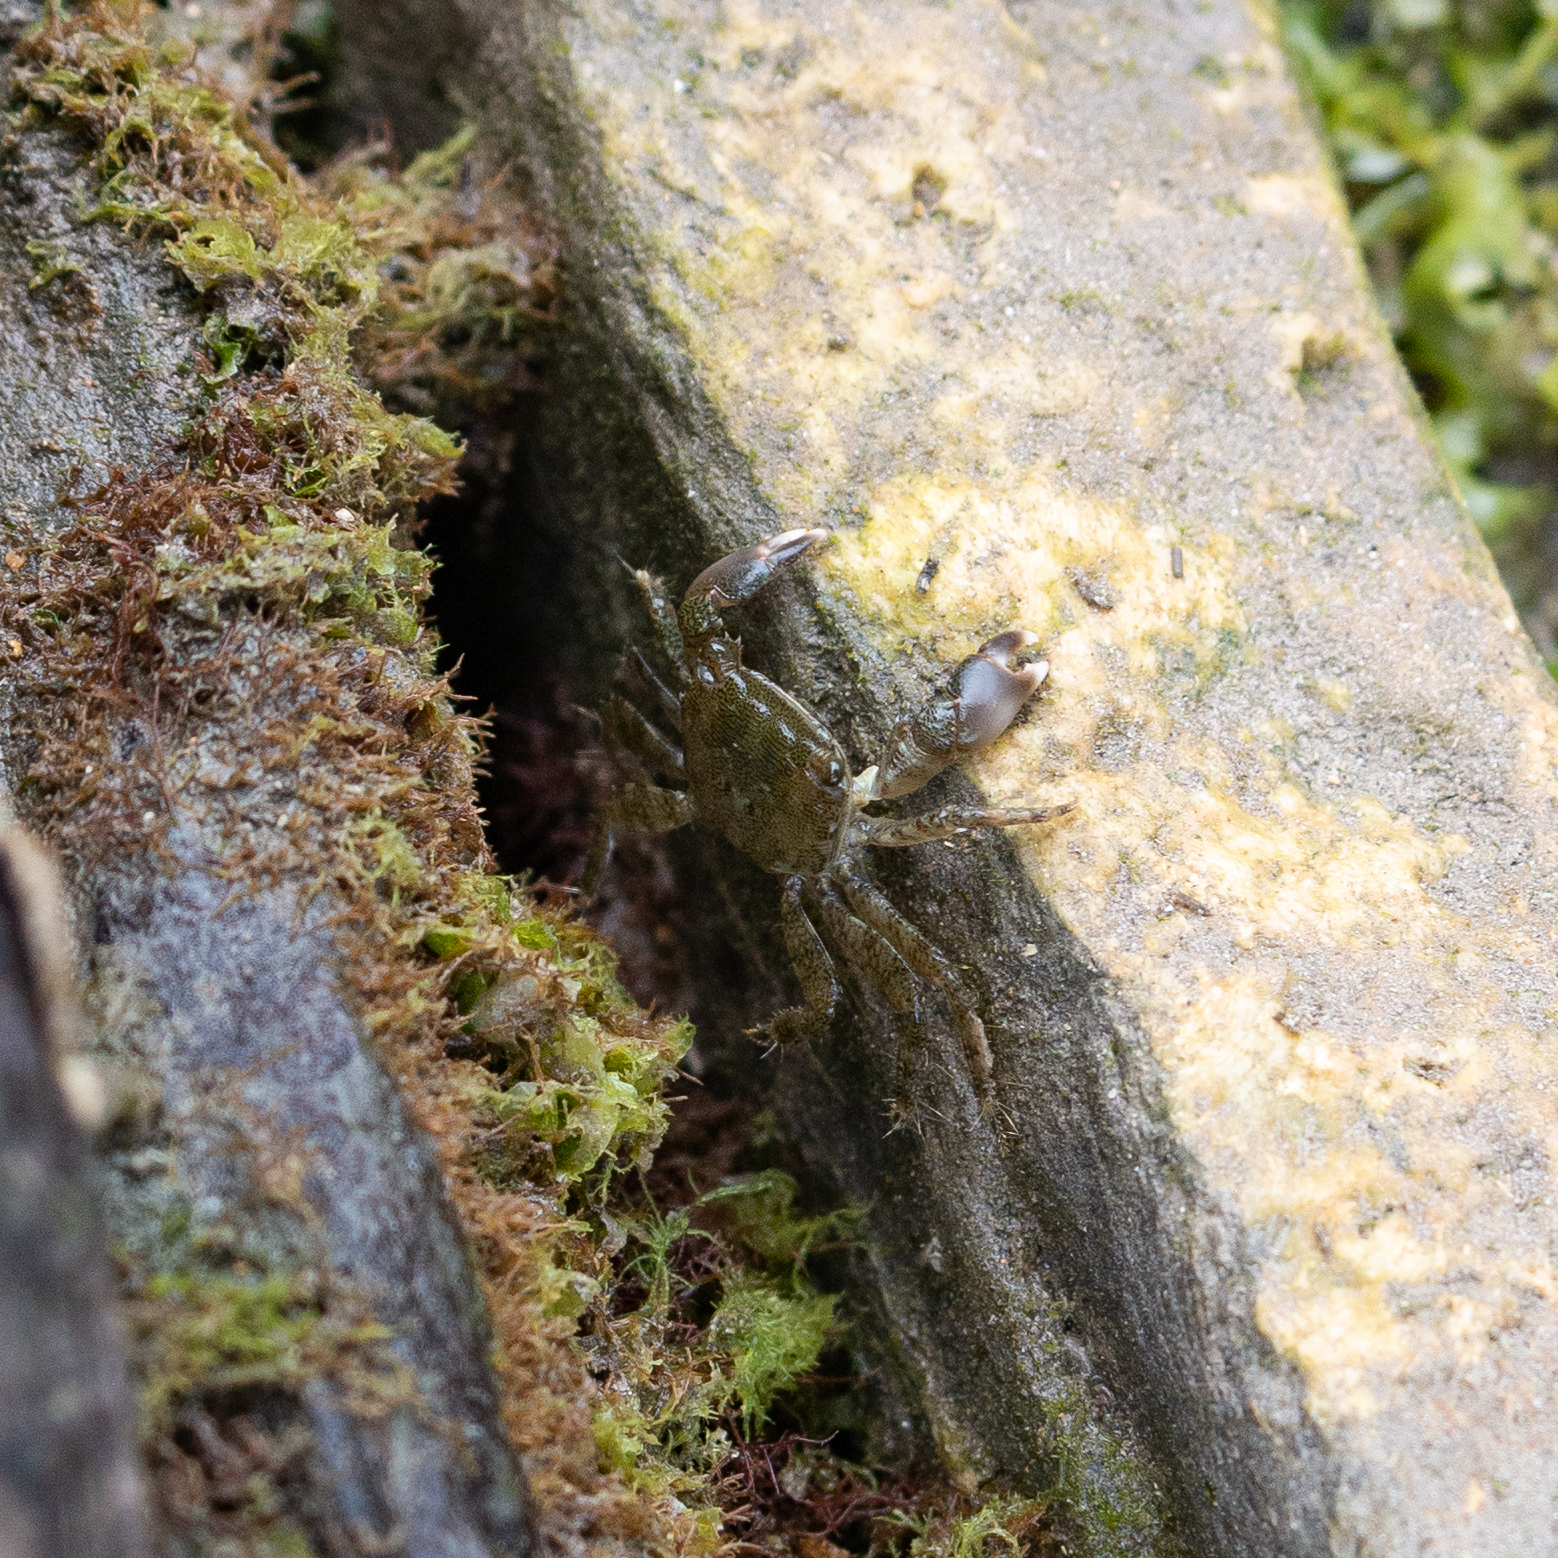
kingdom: Animalia
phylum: Arthropoda
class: Malacostraca
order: Decapoda
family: Grapsidae
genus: Pachygrapsus
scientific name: Pachygrapsus marmoratus
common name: Marbled rock crab
